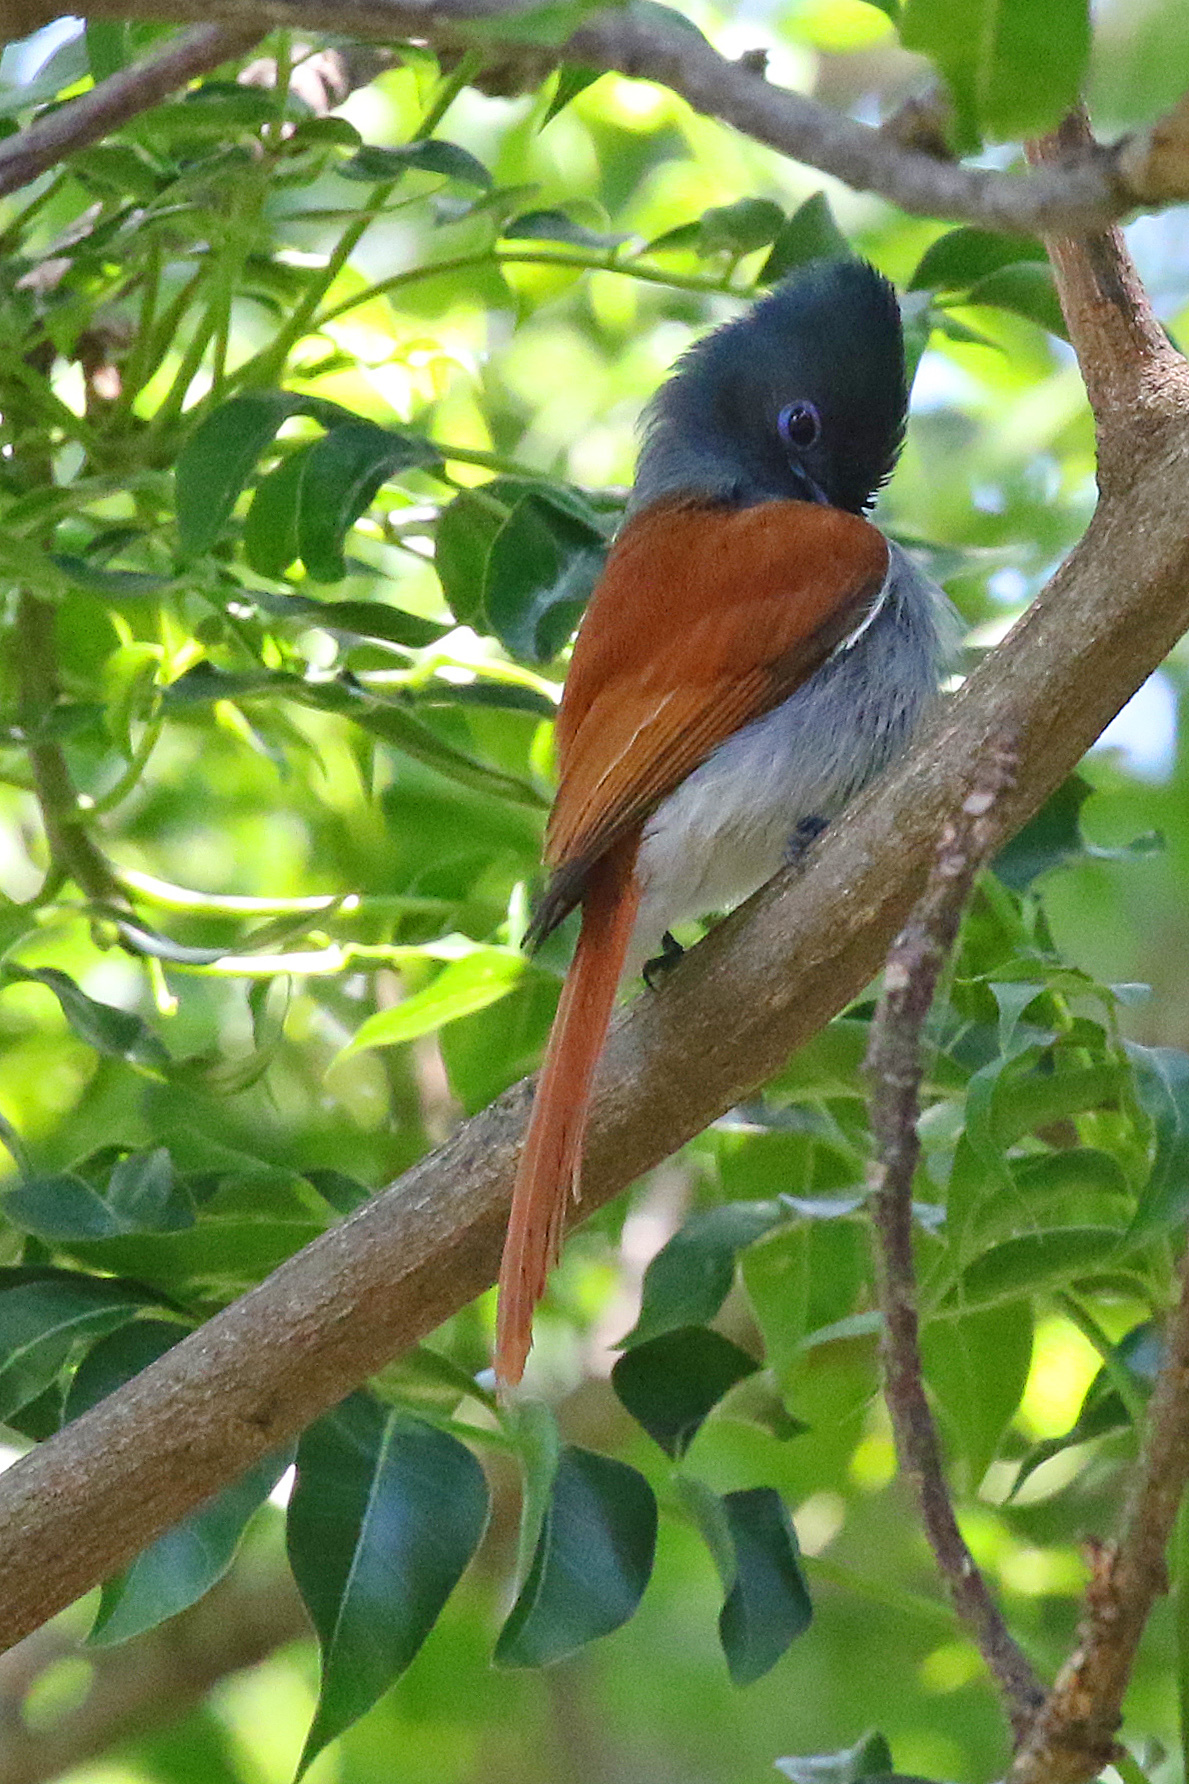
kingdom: Animalia
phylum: Chordata
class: Aves
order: Passeriformes
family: Monarchidae
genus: Terpsiphone
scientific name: Terpsiphone viridis
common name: African paradise flycatcher
